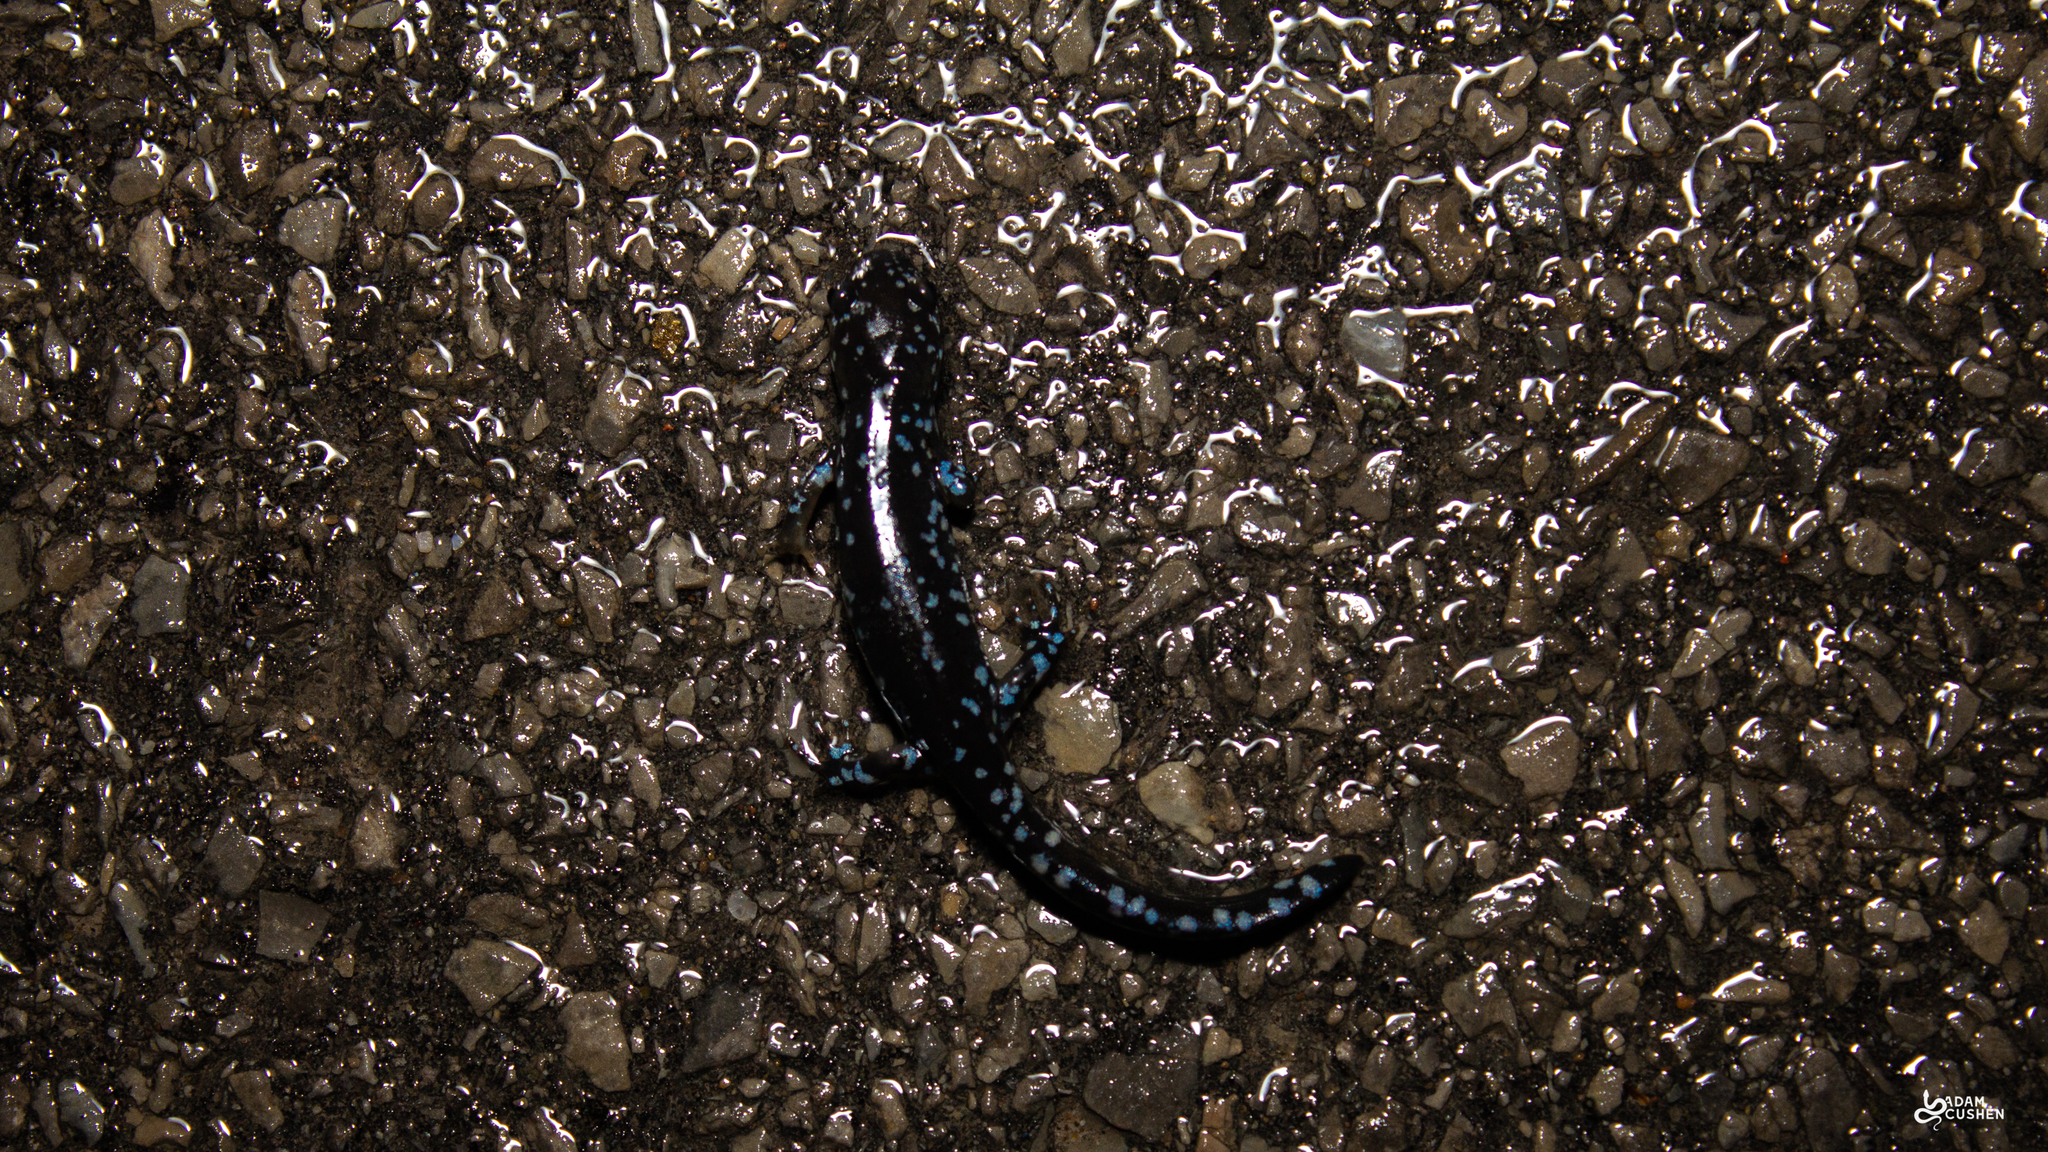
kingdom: Animalia
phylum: Chordata
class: Amphibia
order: Caudata
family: Ambystomatidae
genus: Ambystoma
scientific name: Ambystoma laterale
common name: Blue-spotted salamander
